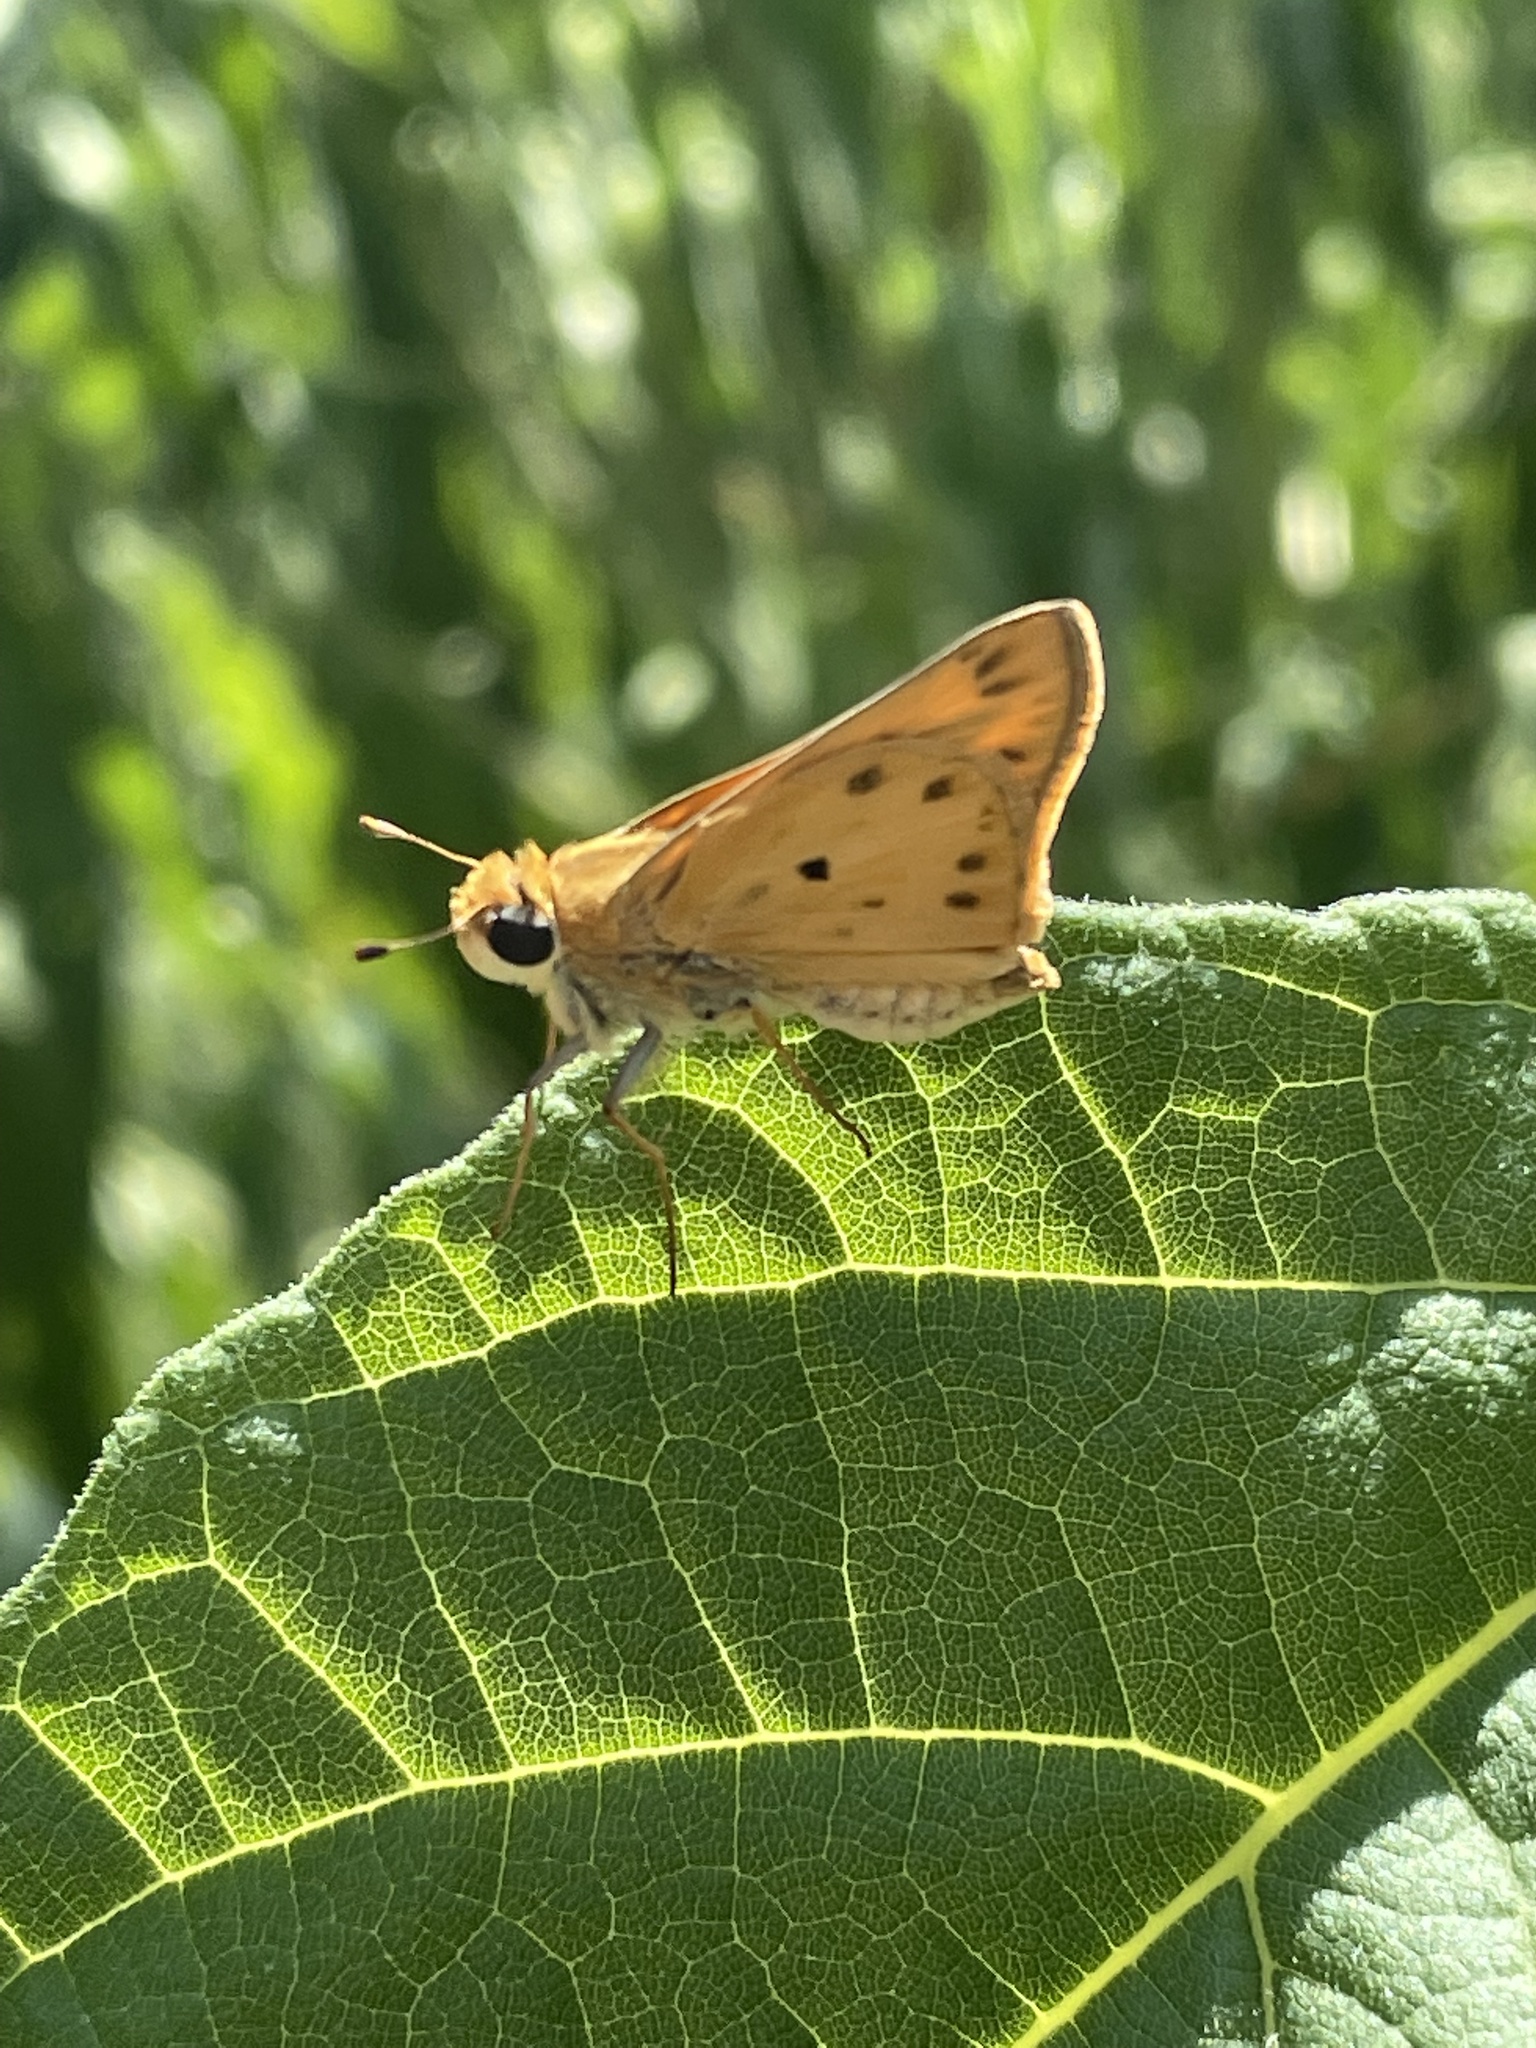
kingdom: Animalia
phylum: Arthropoda
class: Insecta
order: Lepidoptera
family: Hesperiidae
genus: Hylephila
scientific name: Hylephila phyleus
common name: Fiery skipper
